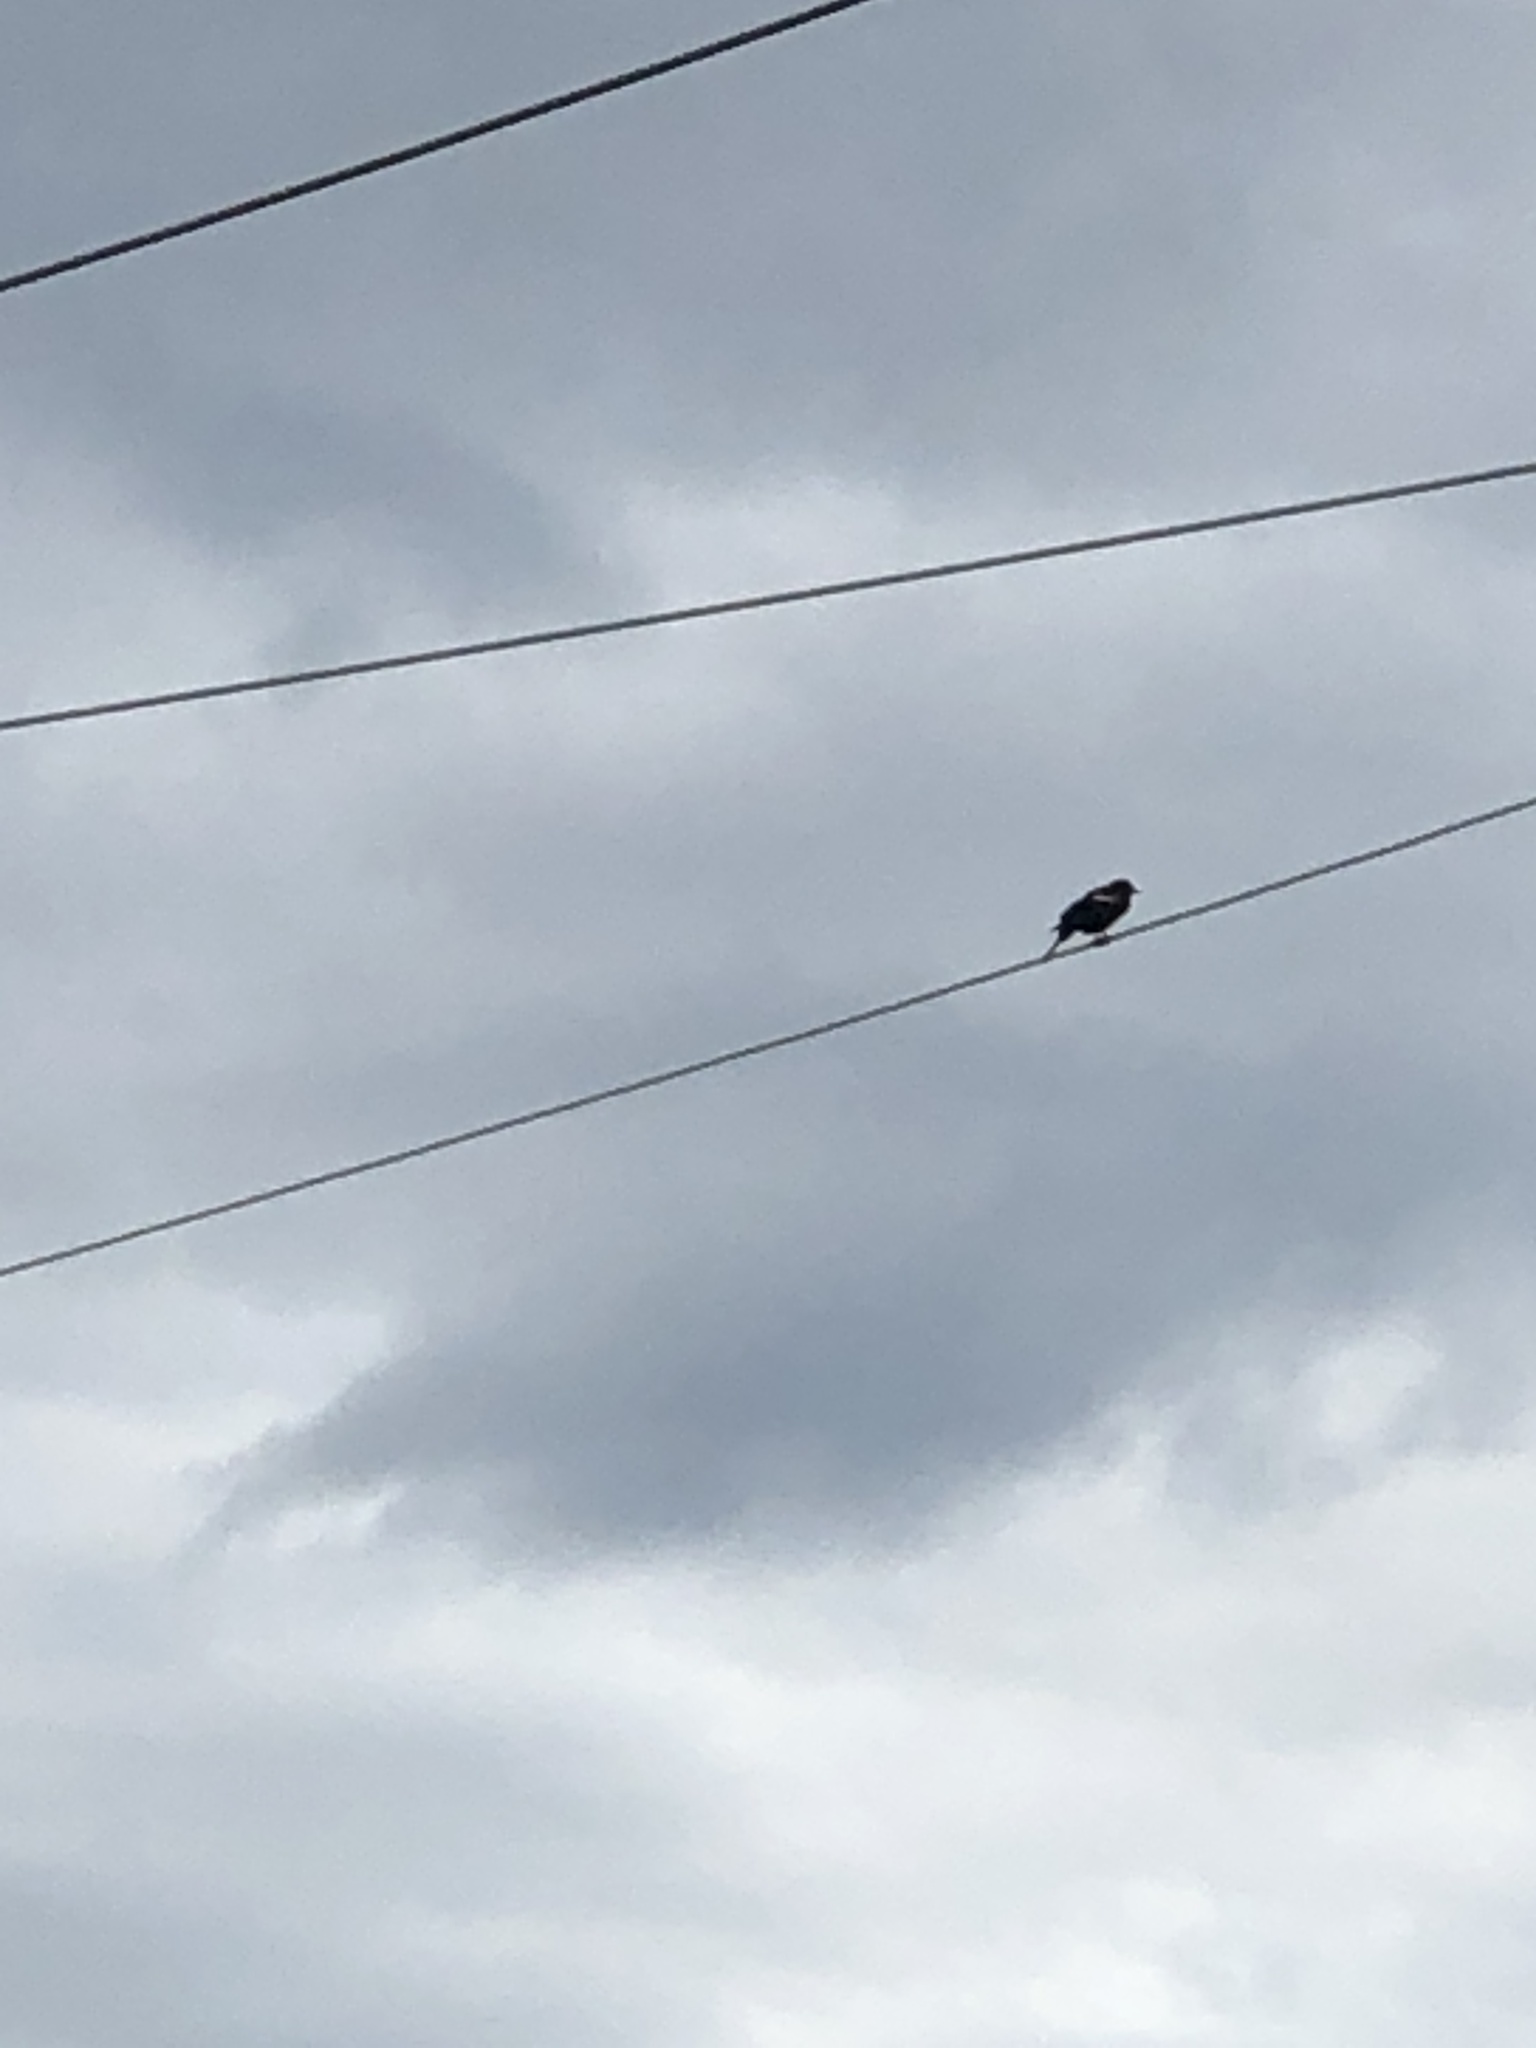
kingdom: Animalia
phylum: Chordata
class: Aves
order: Passeriformes
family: Icteridae
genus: Agelaius
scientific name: Agelaius phoeniceus
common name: Red-winged blackbird
